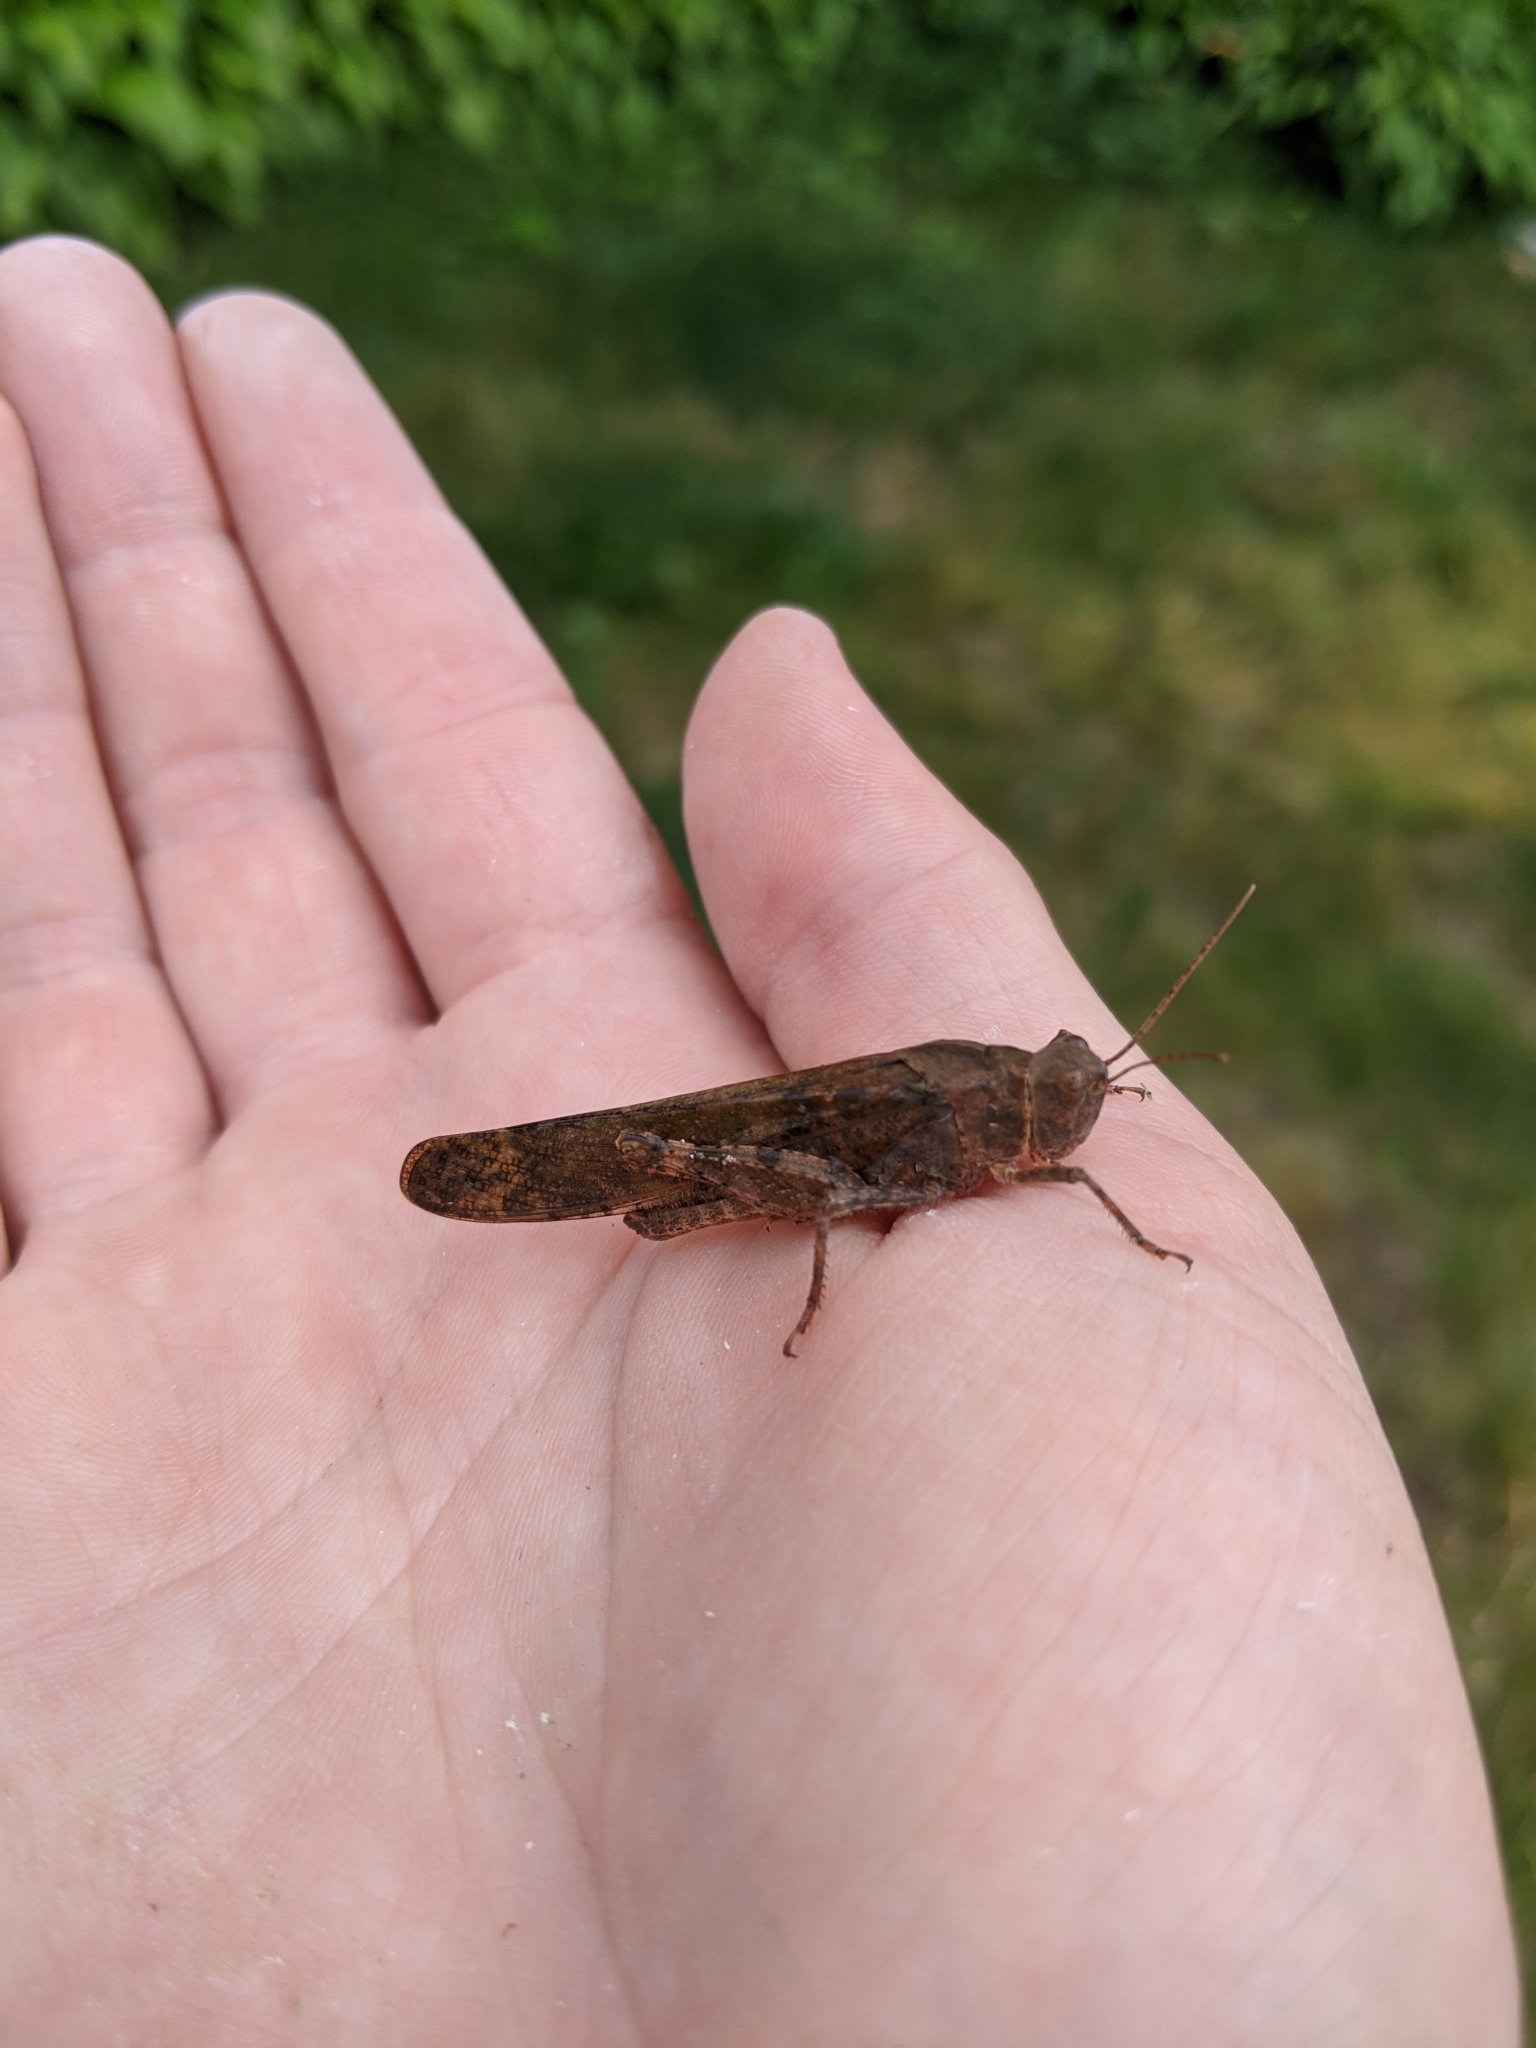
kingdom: Animalia
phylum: Arthropoda
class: Insecta
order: Orthoptera
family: Acrididae
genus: Dissosteira
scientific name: Dissosteira carolina
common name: Carolina grasshopper
